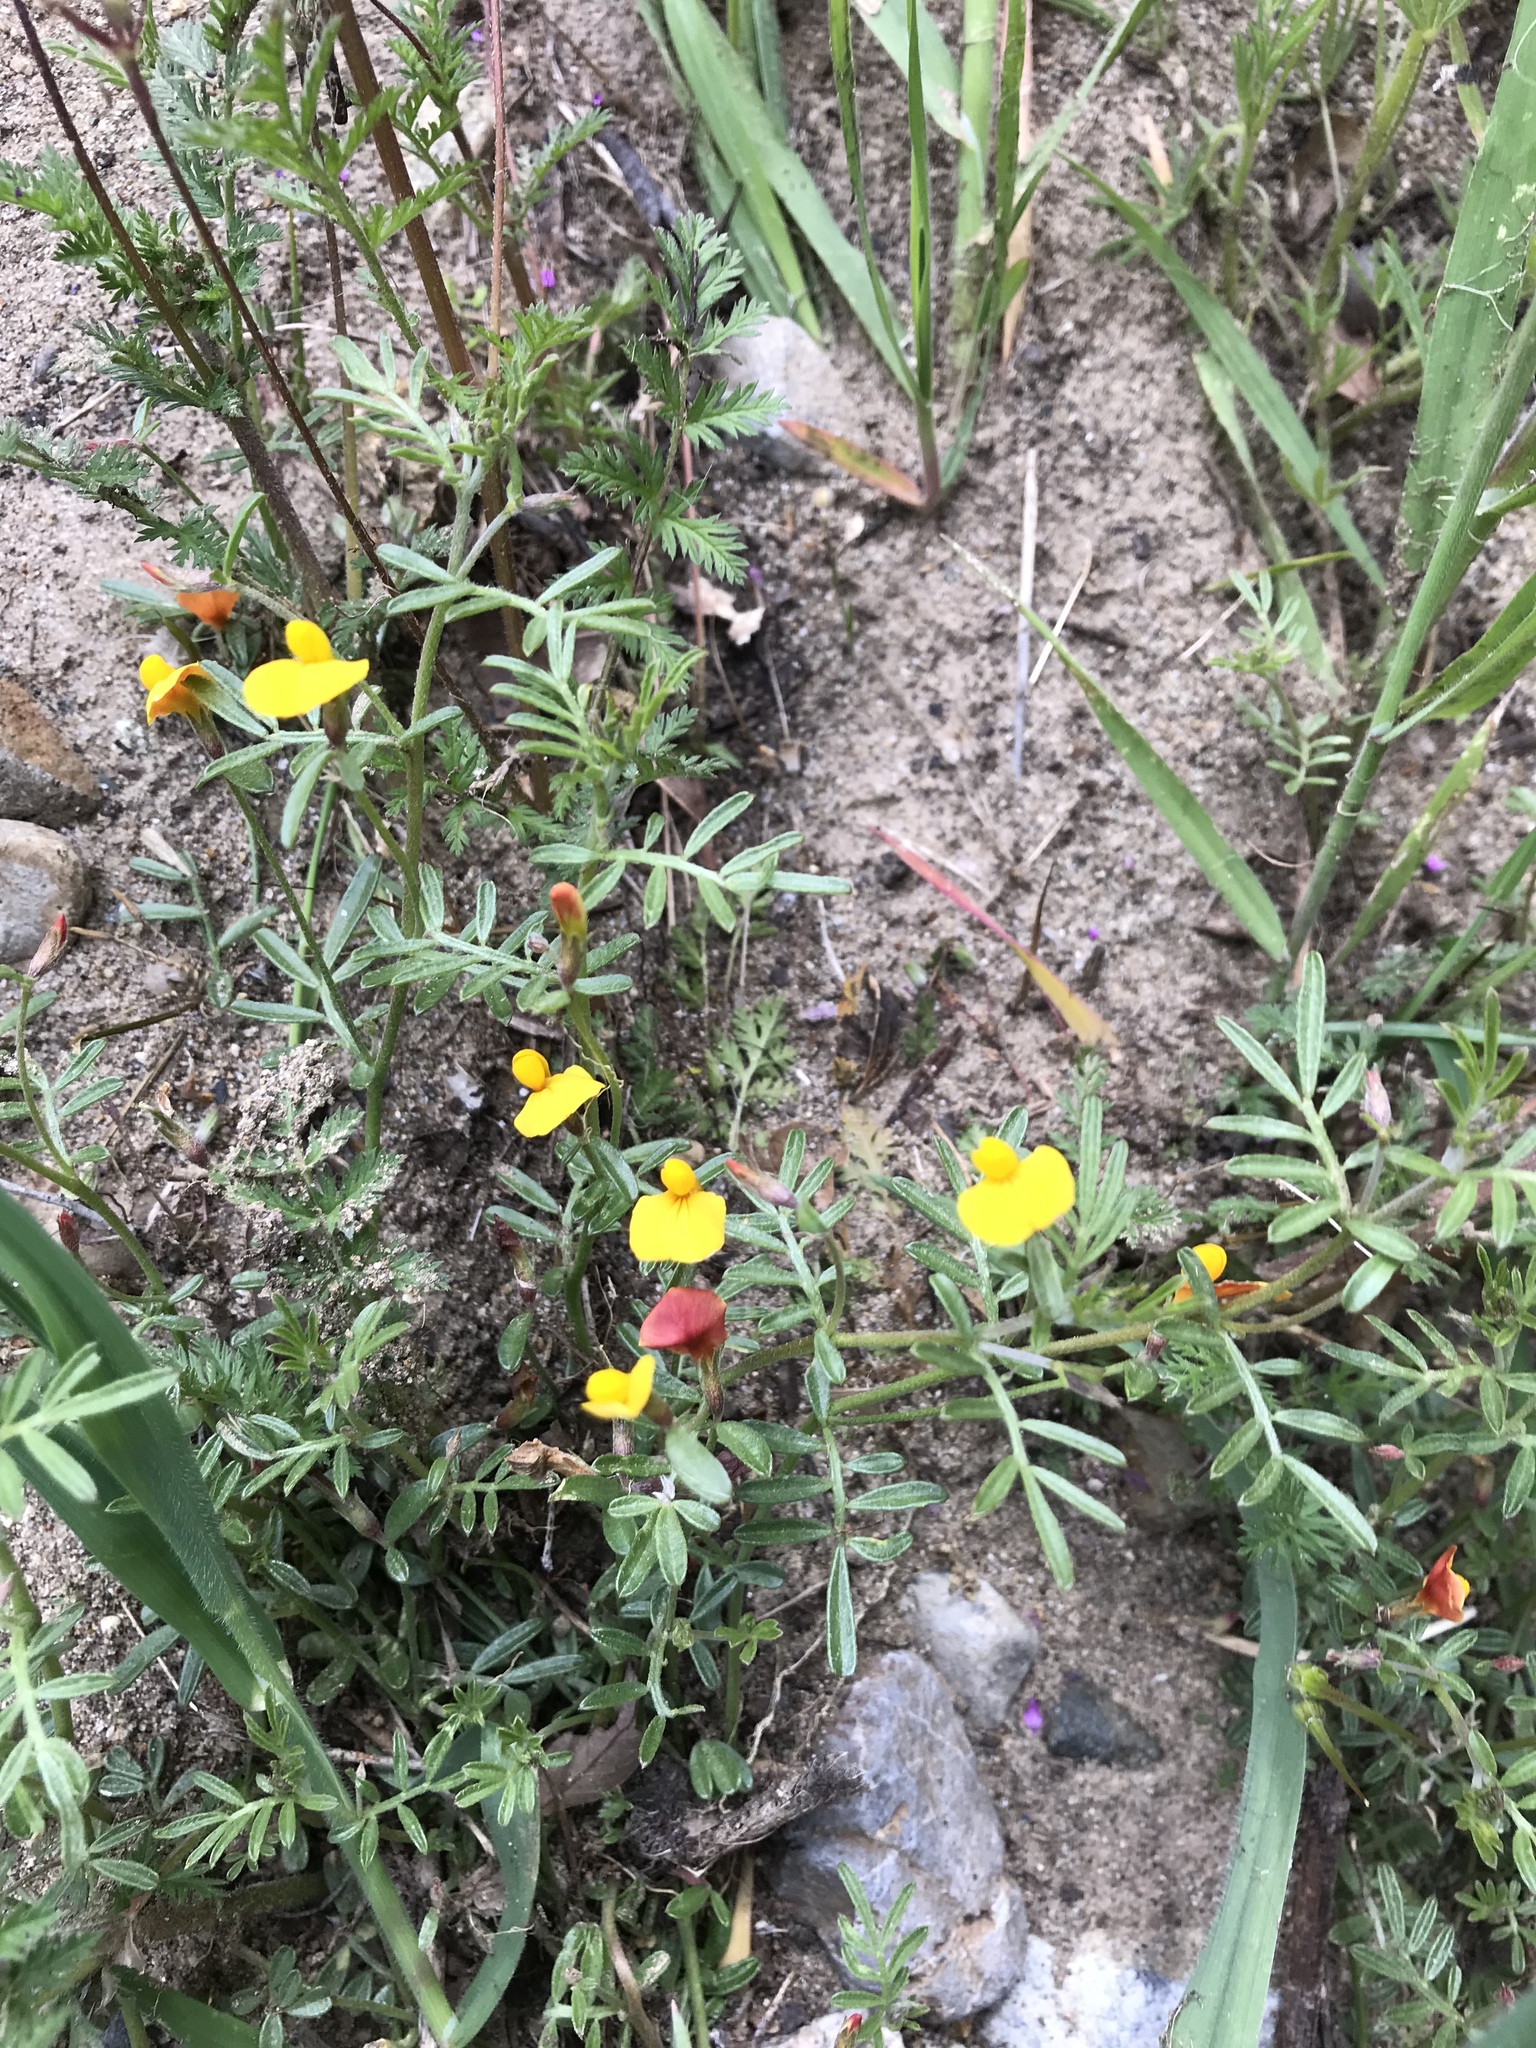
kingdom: Plantae
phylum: Tracheophyta
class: Magnoliopsida
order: Fabales
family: Fabaceae
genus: Acmispon
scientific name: Acmispon strigosus
